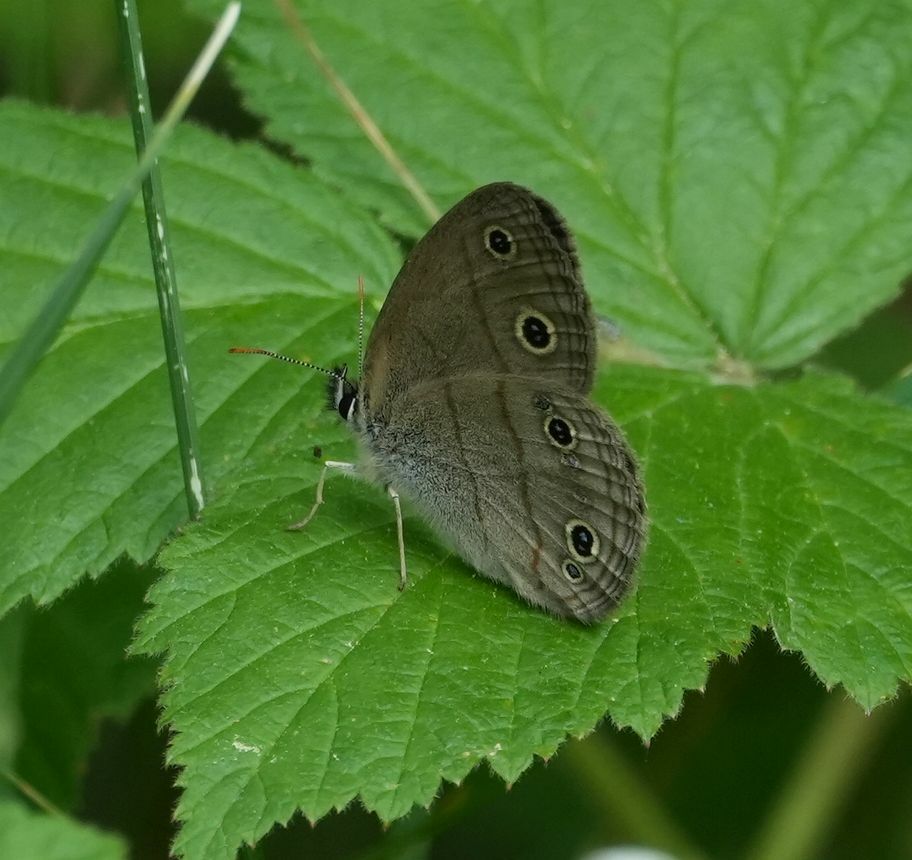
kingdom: Animalia
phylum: Arthropoda
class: Insecta
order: Lepidoptera
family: Nymphalidae
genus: Euptychia
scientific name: Euptychia cymela
